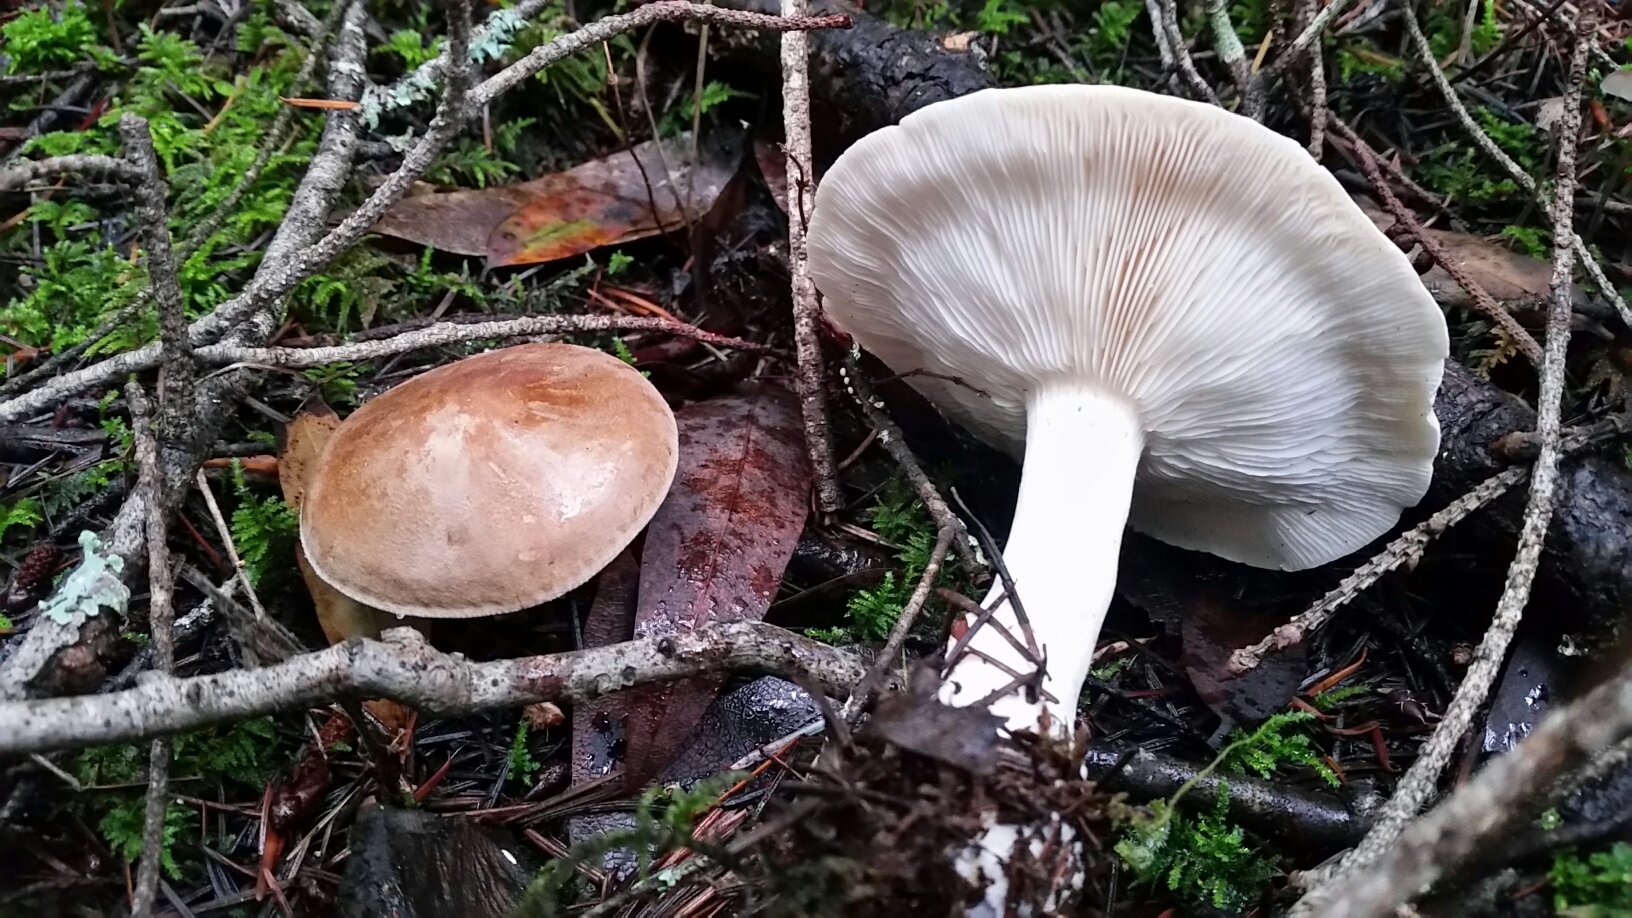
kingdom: Fungi
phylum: Basidiomycota
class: Agaricomycetes
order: Agaricales
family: Tricholomataceae
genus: Leucopaxillus
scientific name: Leucopaxillus gentianeus
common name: Bitter funnel
